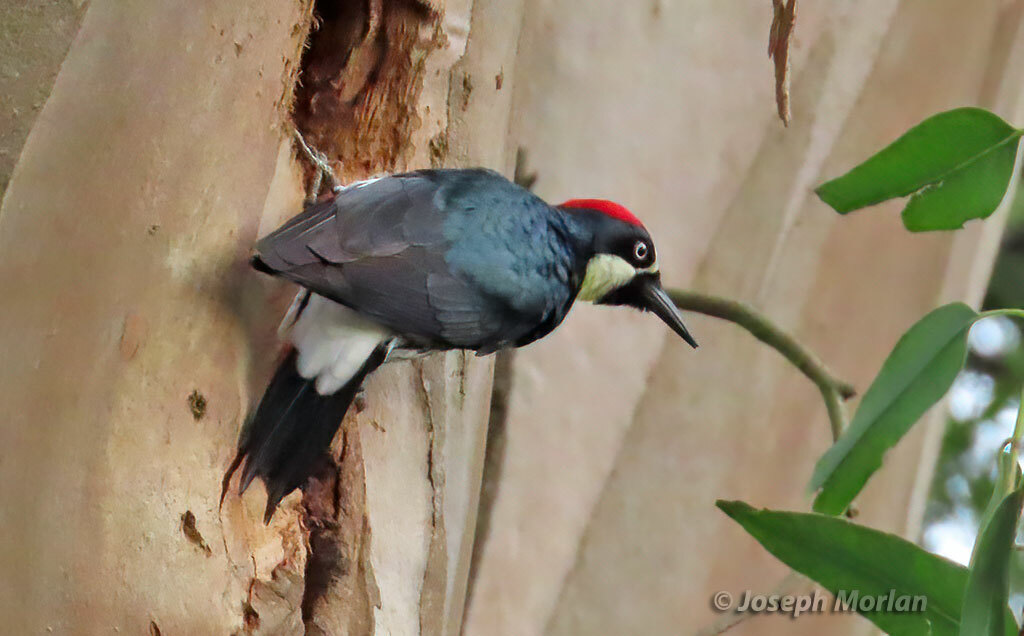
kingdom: Animalia
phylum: Chordata
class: Aves
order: Piciformes
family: Picidae
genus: Melanerpes
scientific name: Melanerpes formicivorus
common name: Acorn woodpecker
